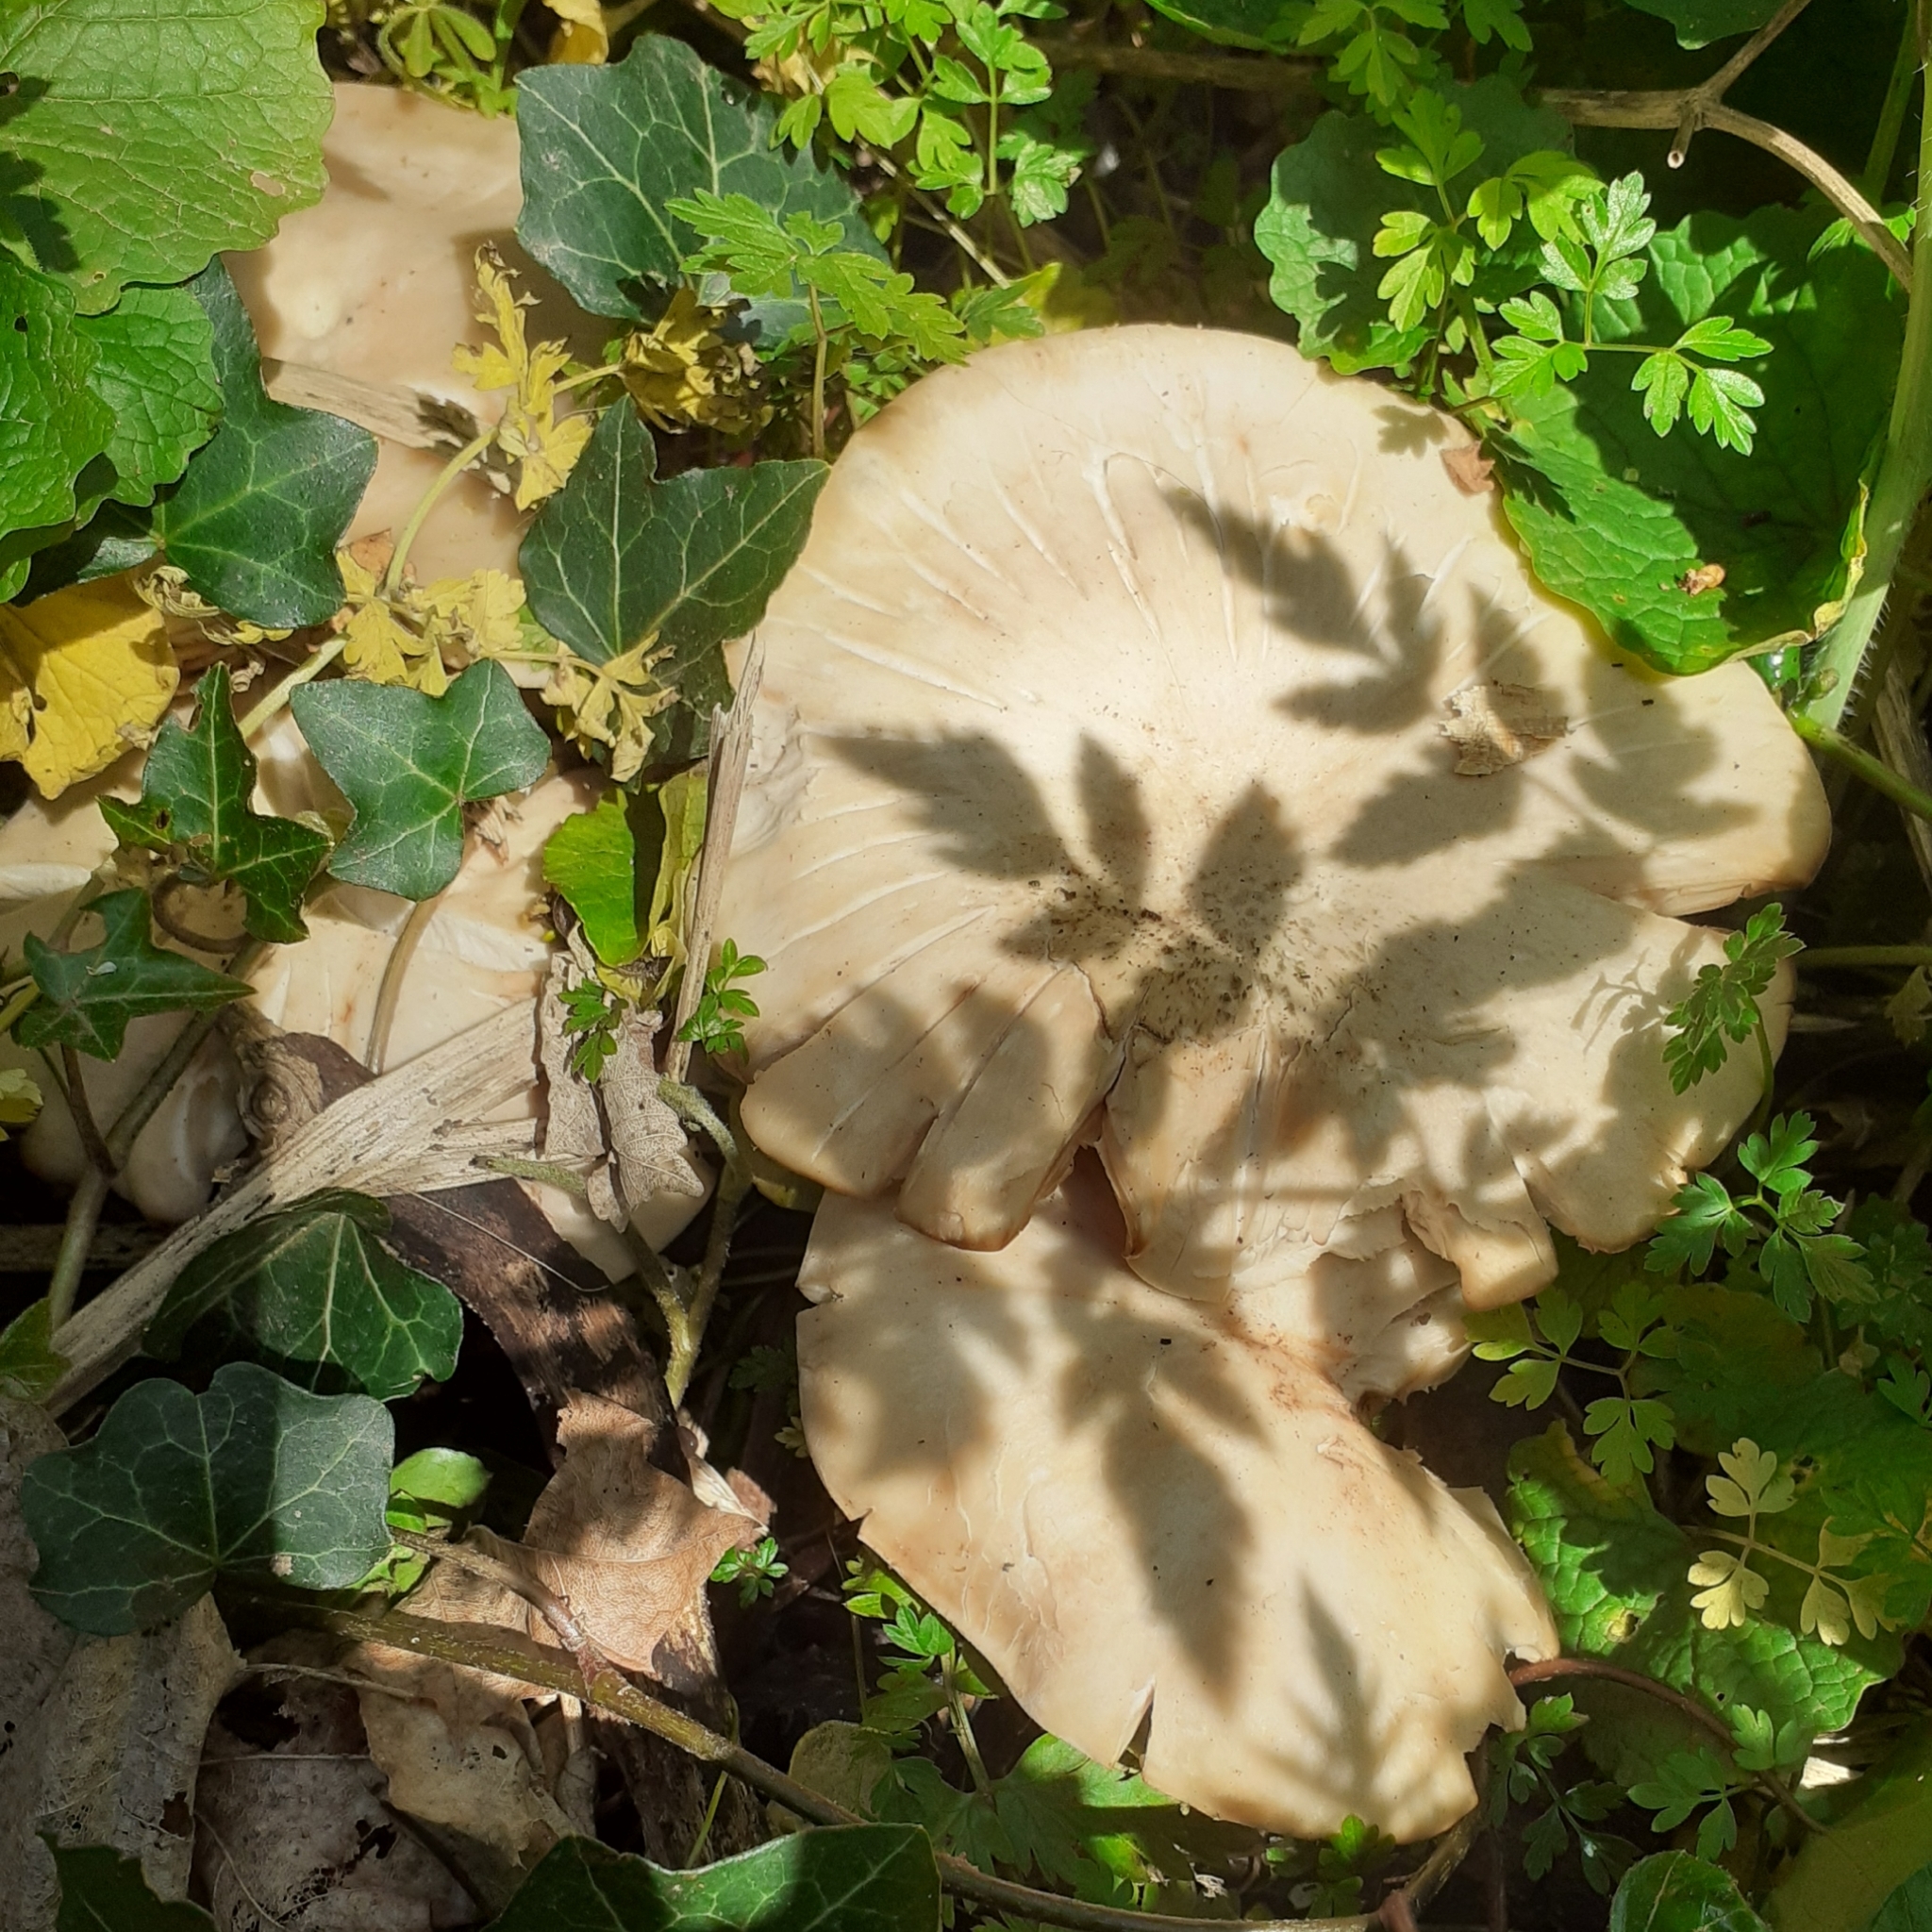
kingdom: Fungi
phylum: Basidiomycota
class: Agaricomycetes
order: Agaricales
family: Lyophyllaceae
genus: Calocybe
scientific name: Calocybe gambosa
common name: St. george's mushroom
